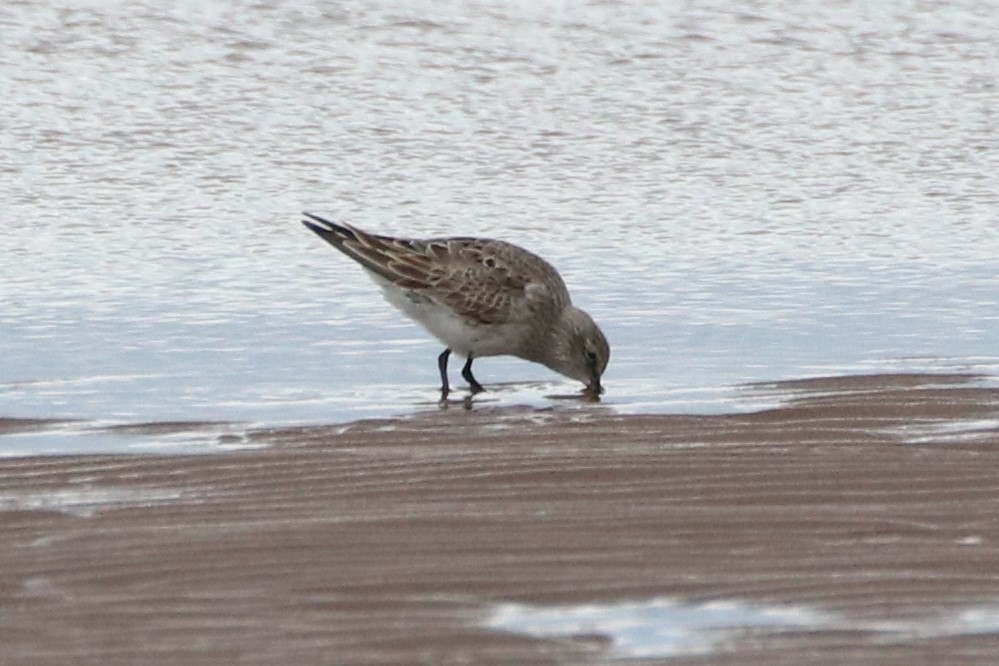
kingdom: Animalia
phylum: Chordata
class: Aves
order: Charadriiformes
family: Scolopacidae
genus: Calidris
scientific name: Calidris fuscicollis
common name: White-rumped sandpiper
